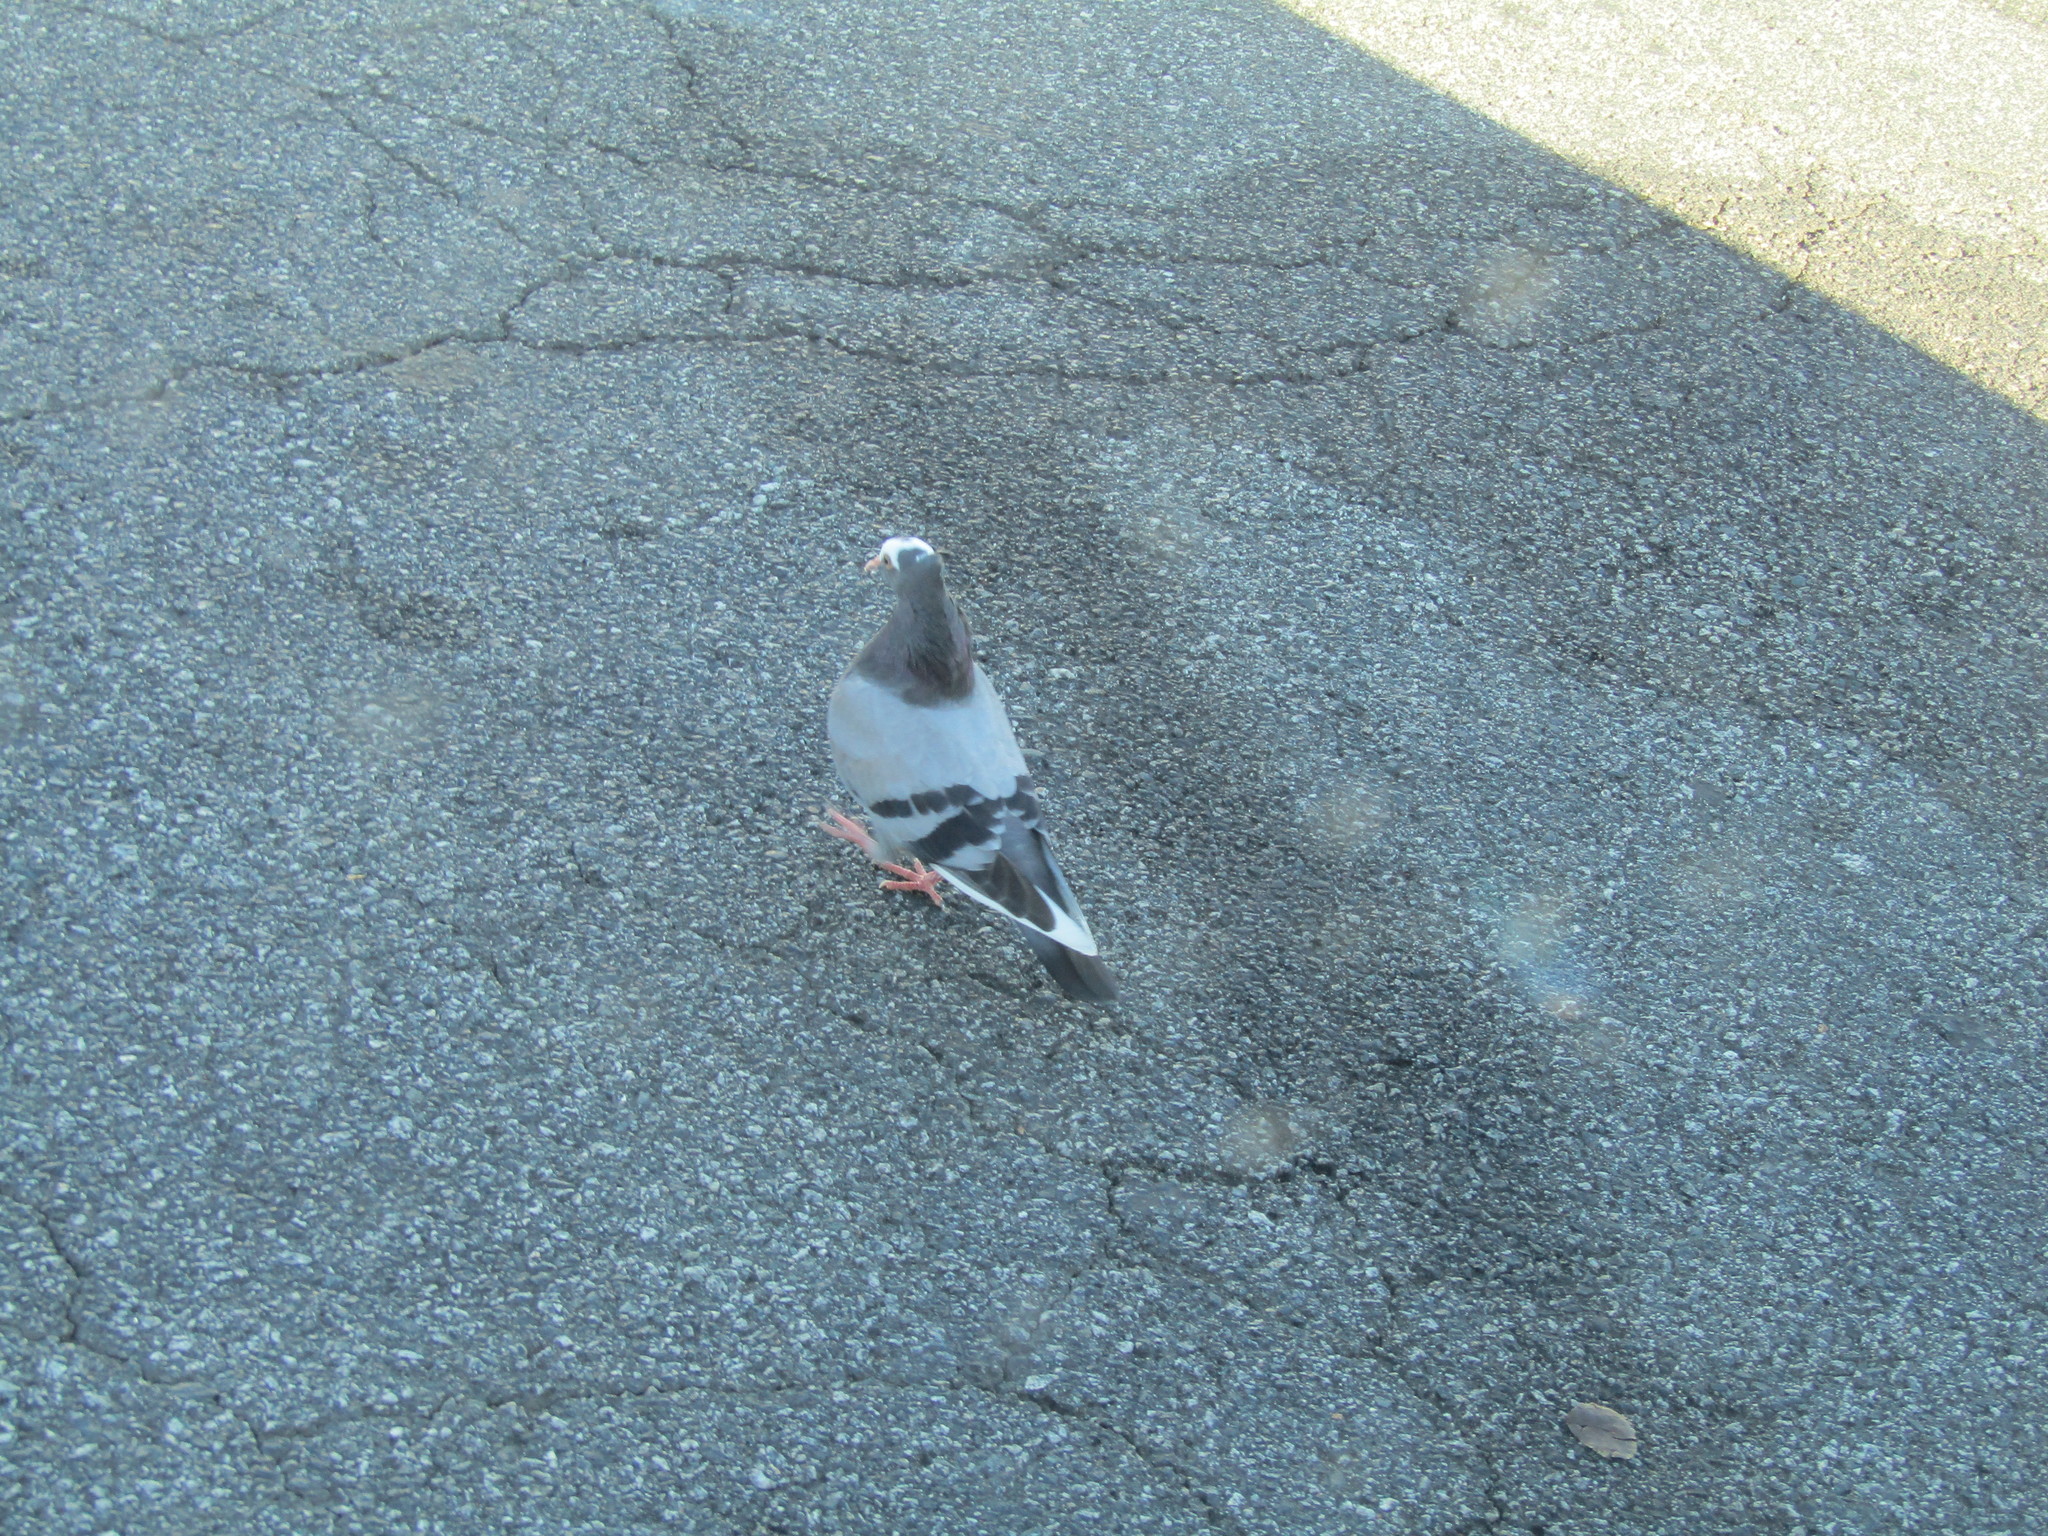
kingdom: Animalia
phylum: Chordata
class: Aves
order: Columbiformes
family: Columbidae
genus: Columba
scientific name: Columba livia
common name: Rock pigeon
